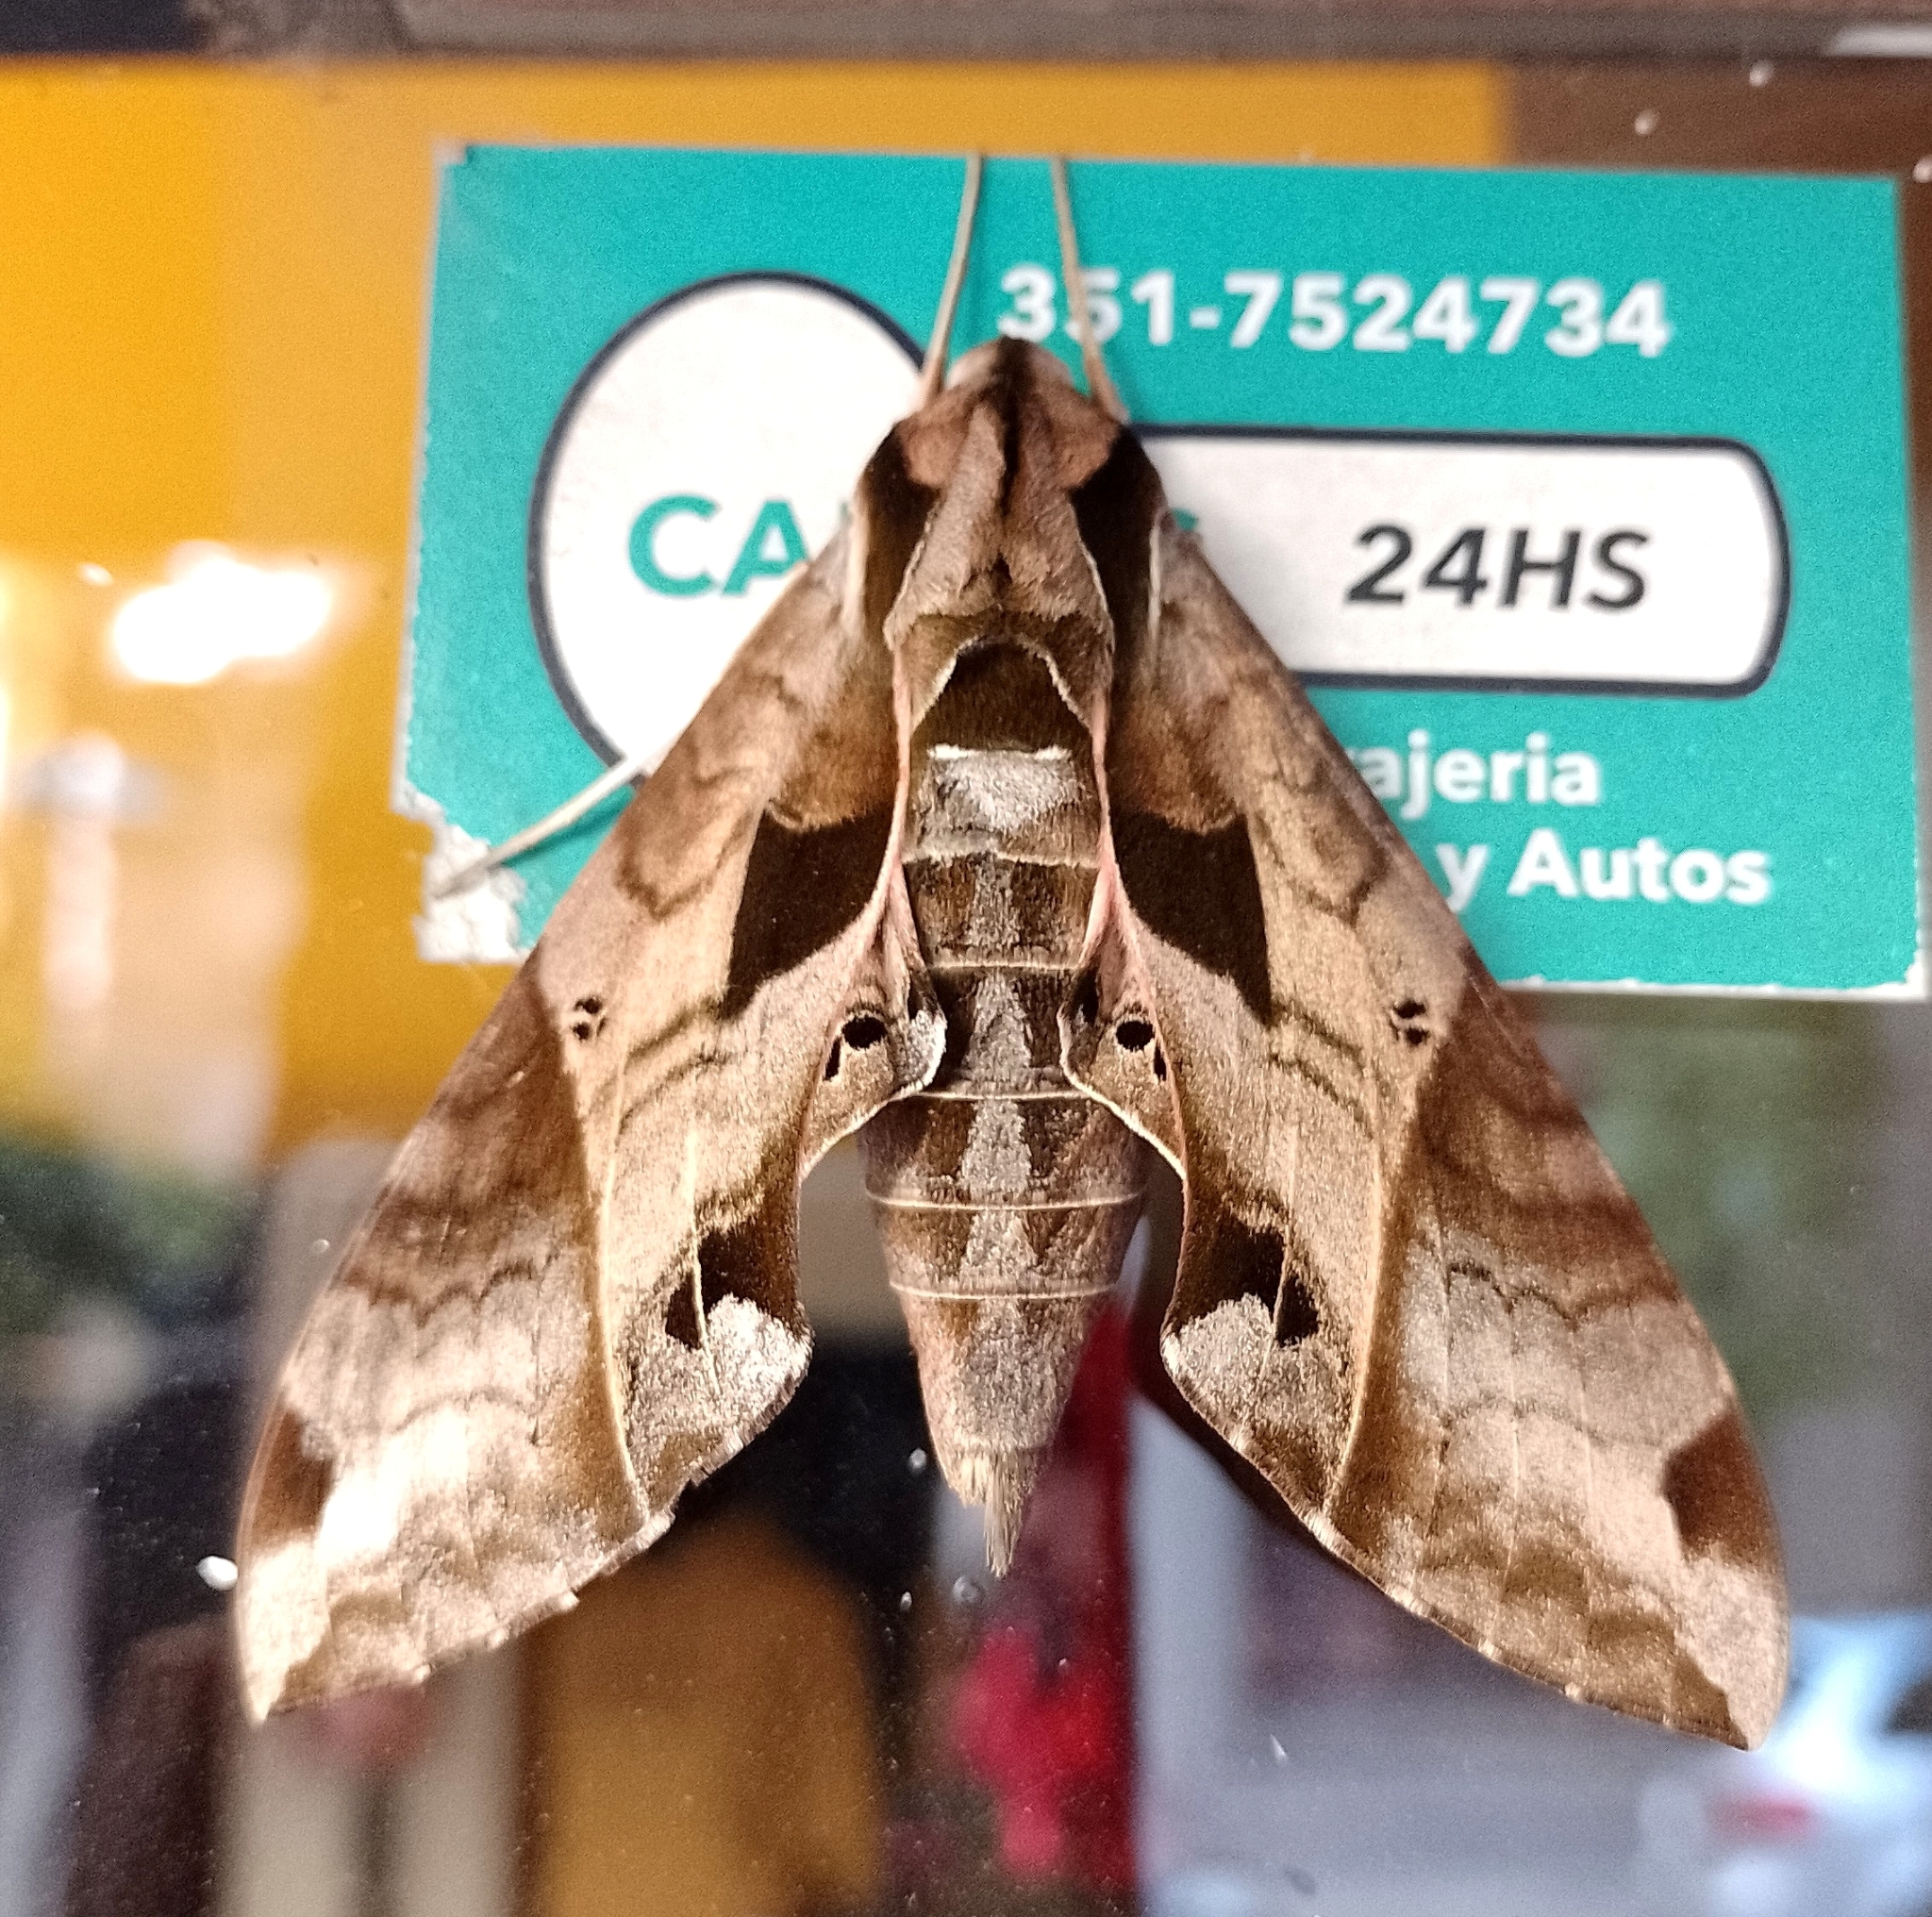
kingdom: Animalia
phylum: Arthropoda
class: Insecta
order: Lepidoptera
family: Sphingidae
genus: Eumorpha
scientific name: Eumorpha analis
